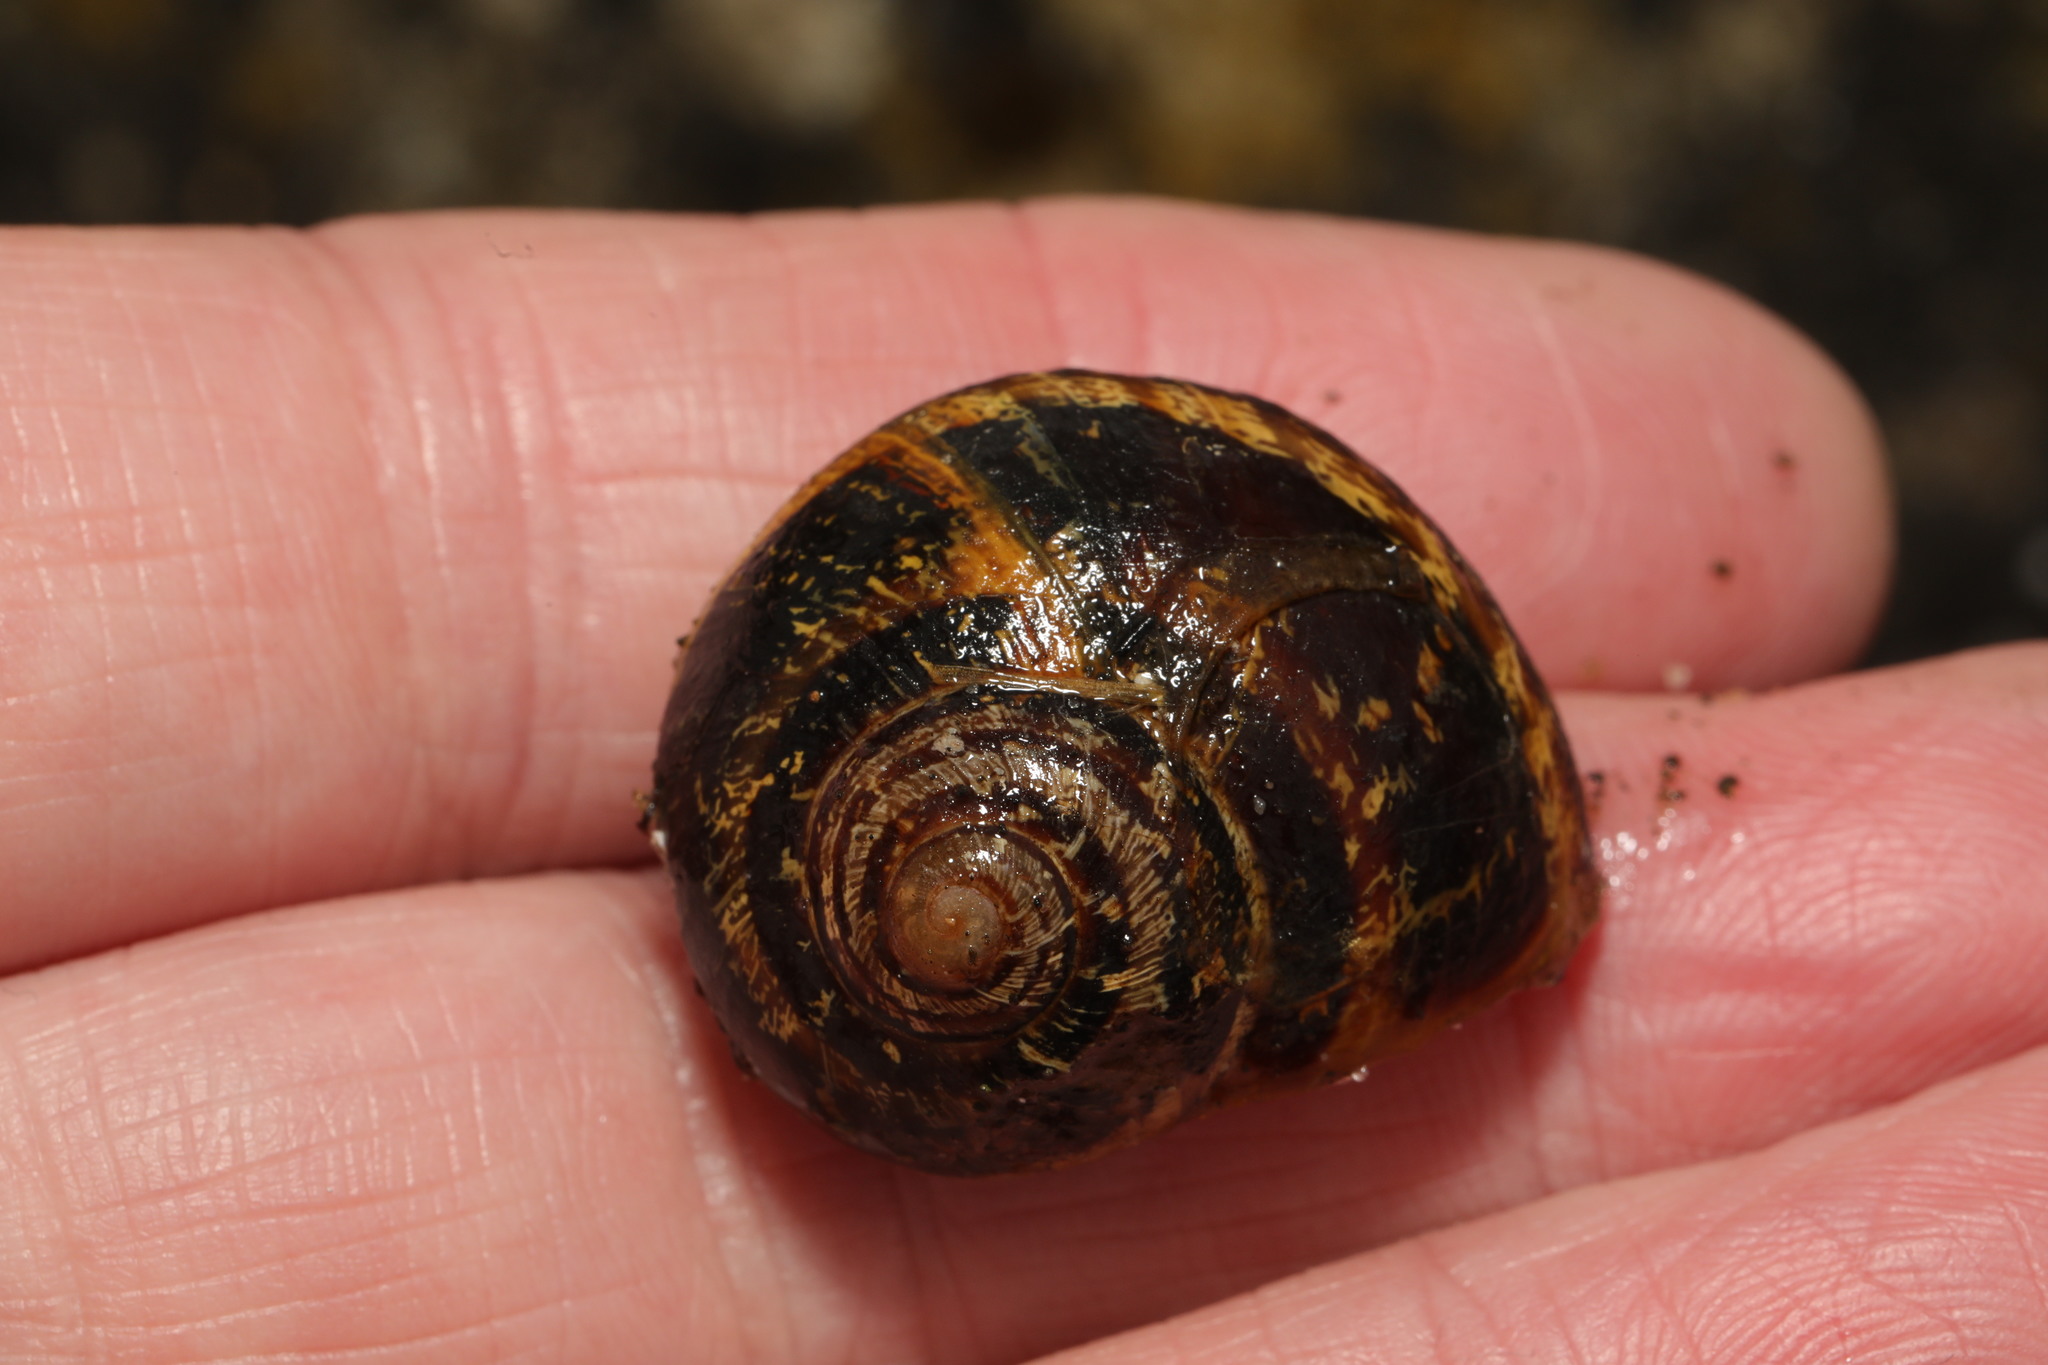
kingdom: Animalia
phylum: Mollusca
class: Gastropoda
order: Stylommatophora
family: Helicidae
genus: Cornu
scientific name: Cornu aspersum
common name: Brown garden snail
